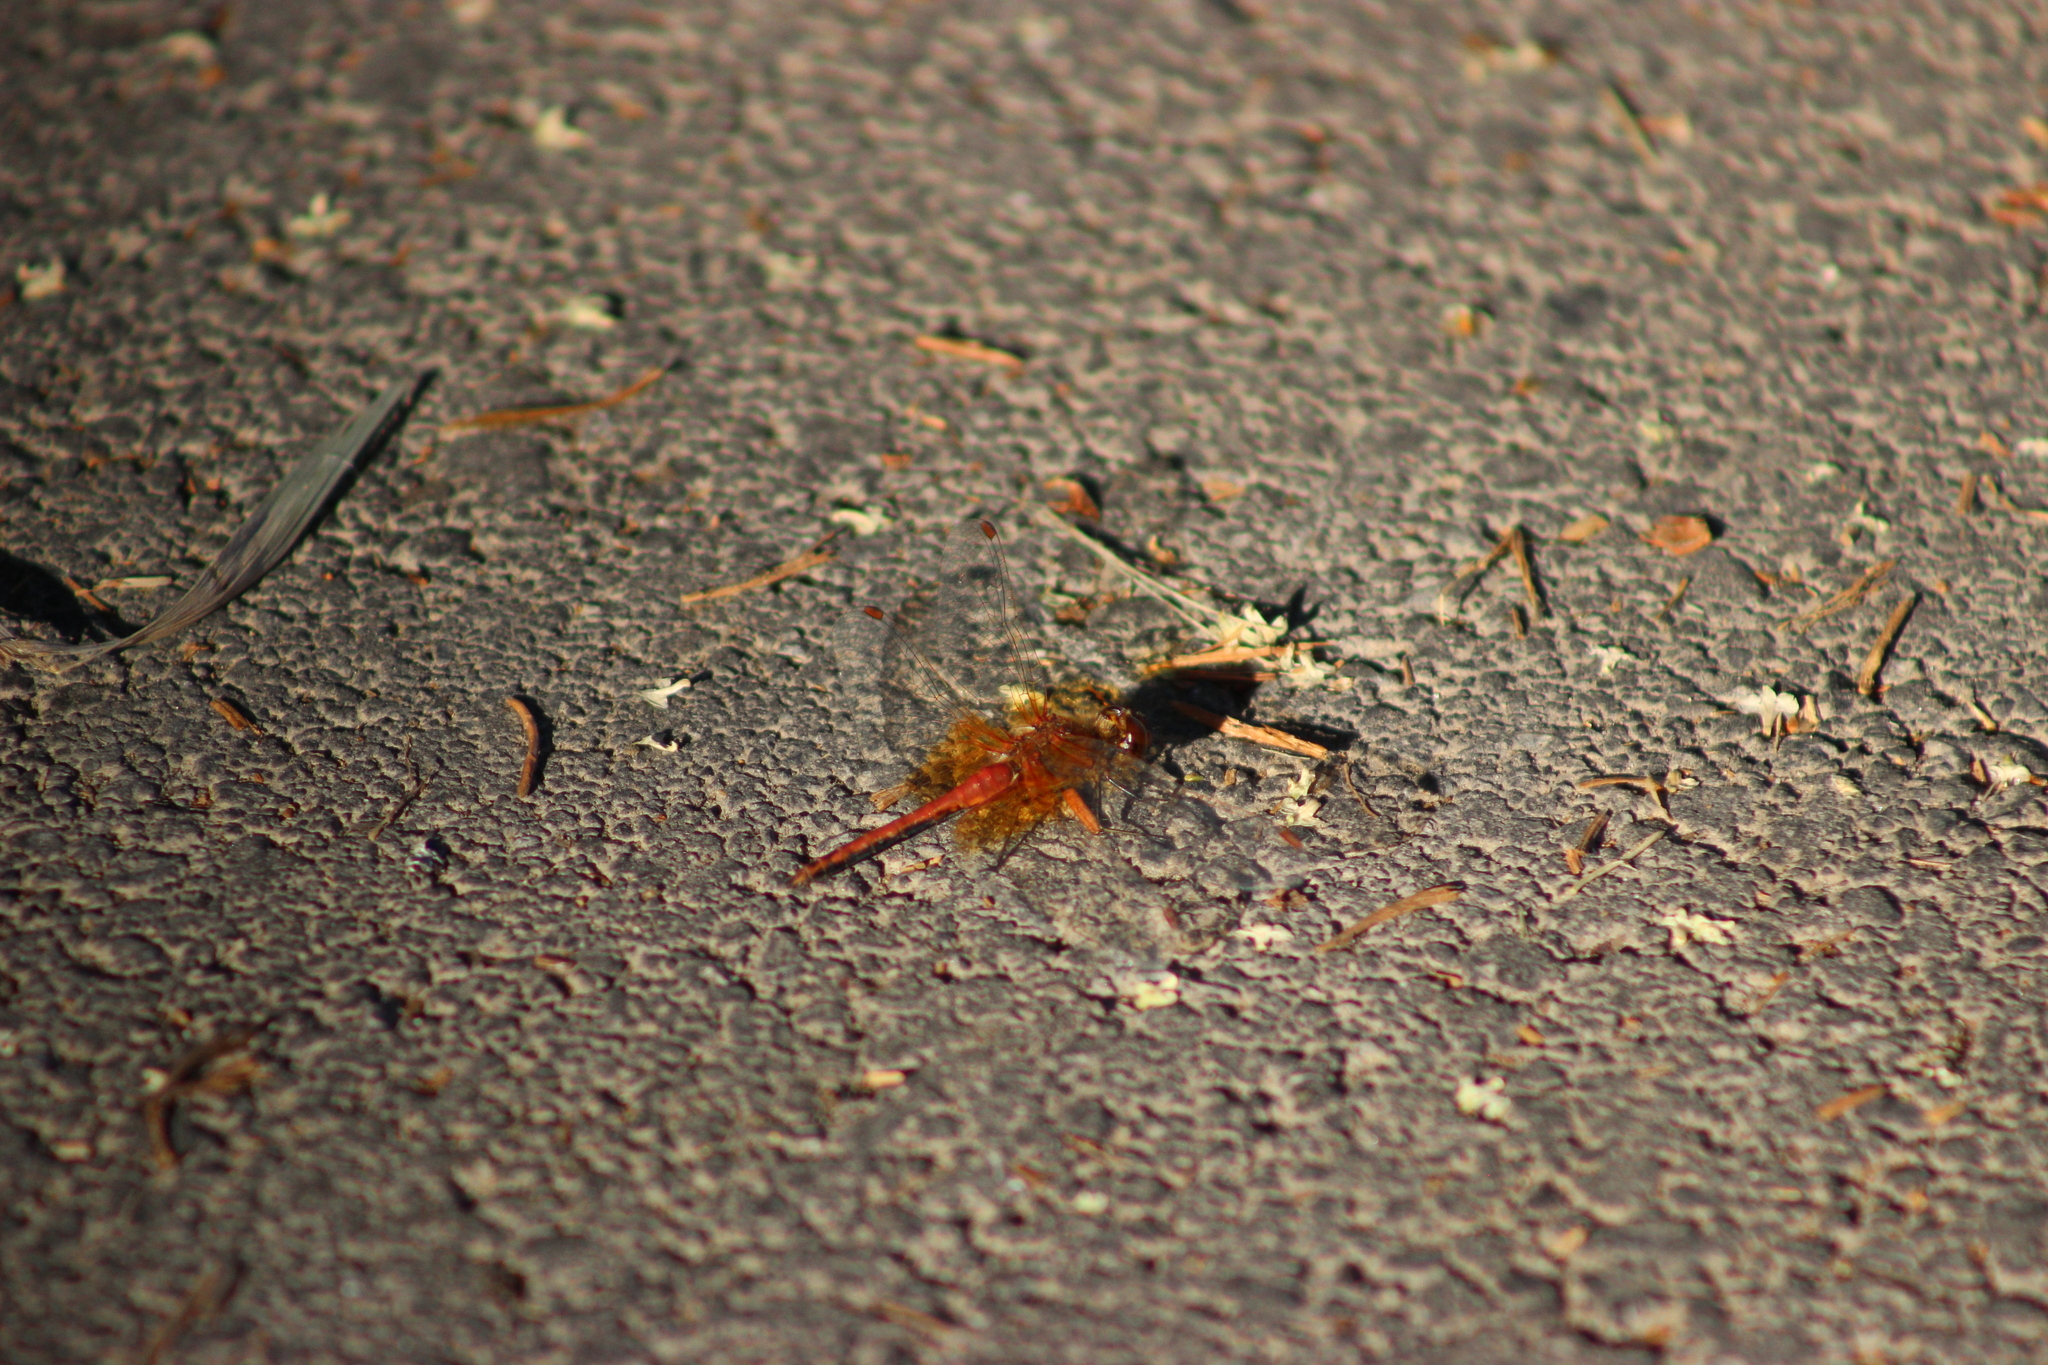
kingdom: Animalia
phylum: Arthropoda
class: Insecta
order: Odonata
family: Libellulidae
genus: Sympetrum
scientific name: Sympetrum flaveolum
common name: Yellow-winged darter
